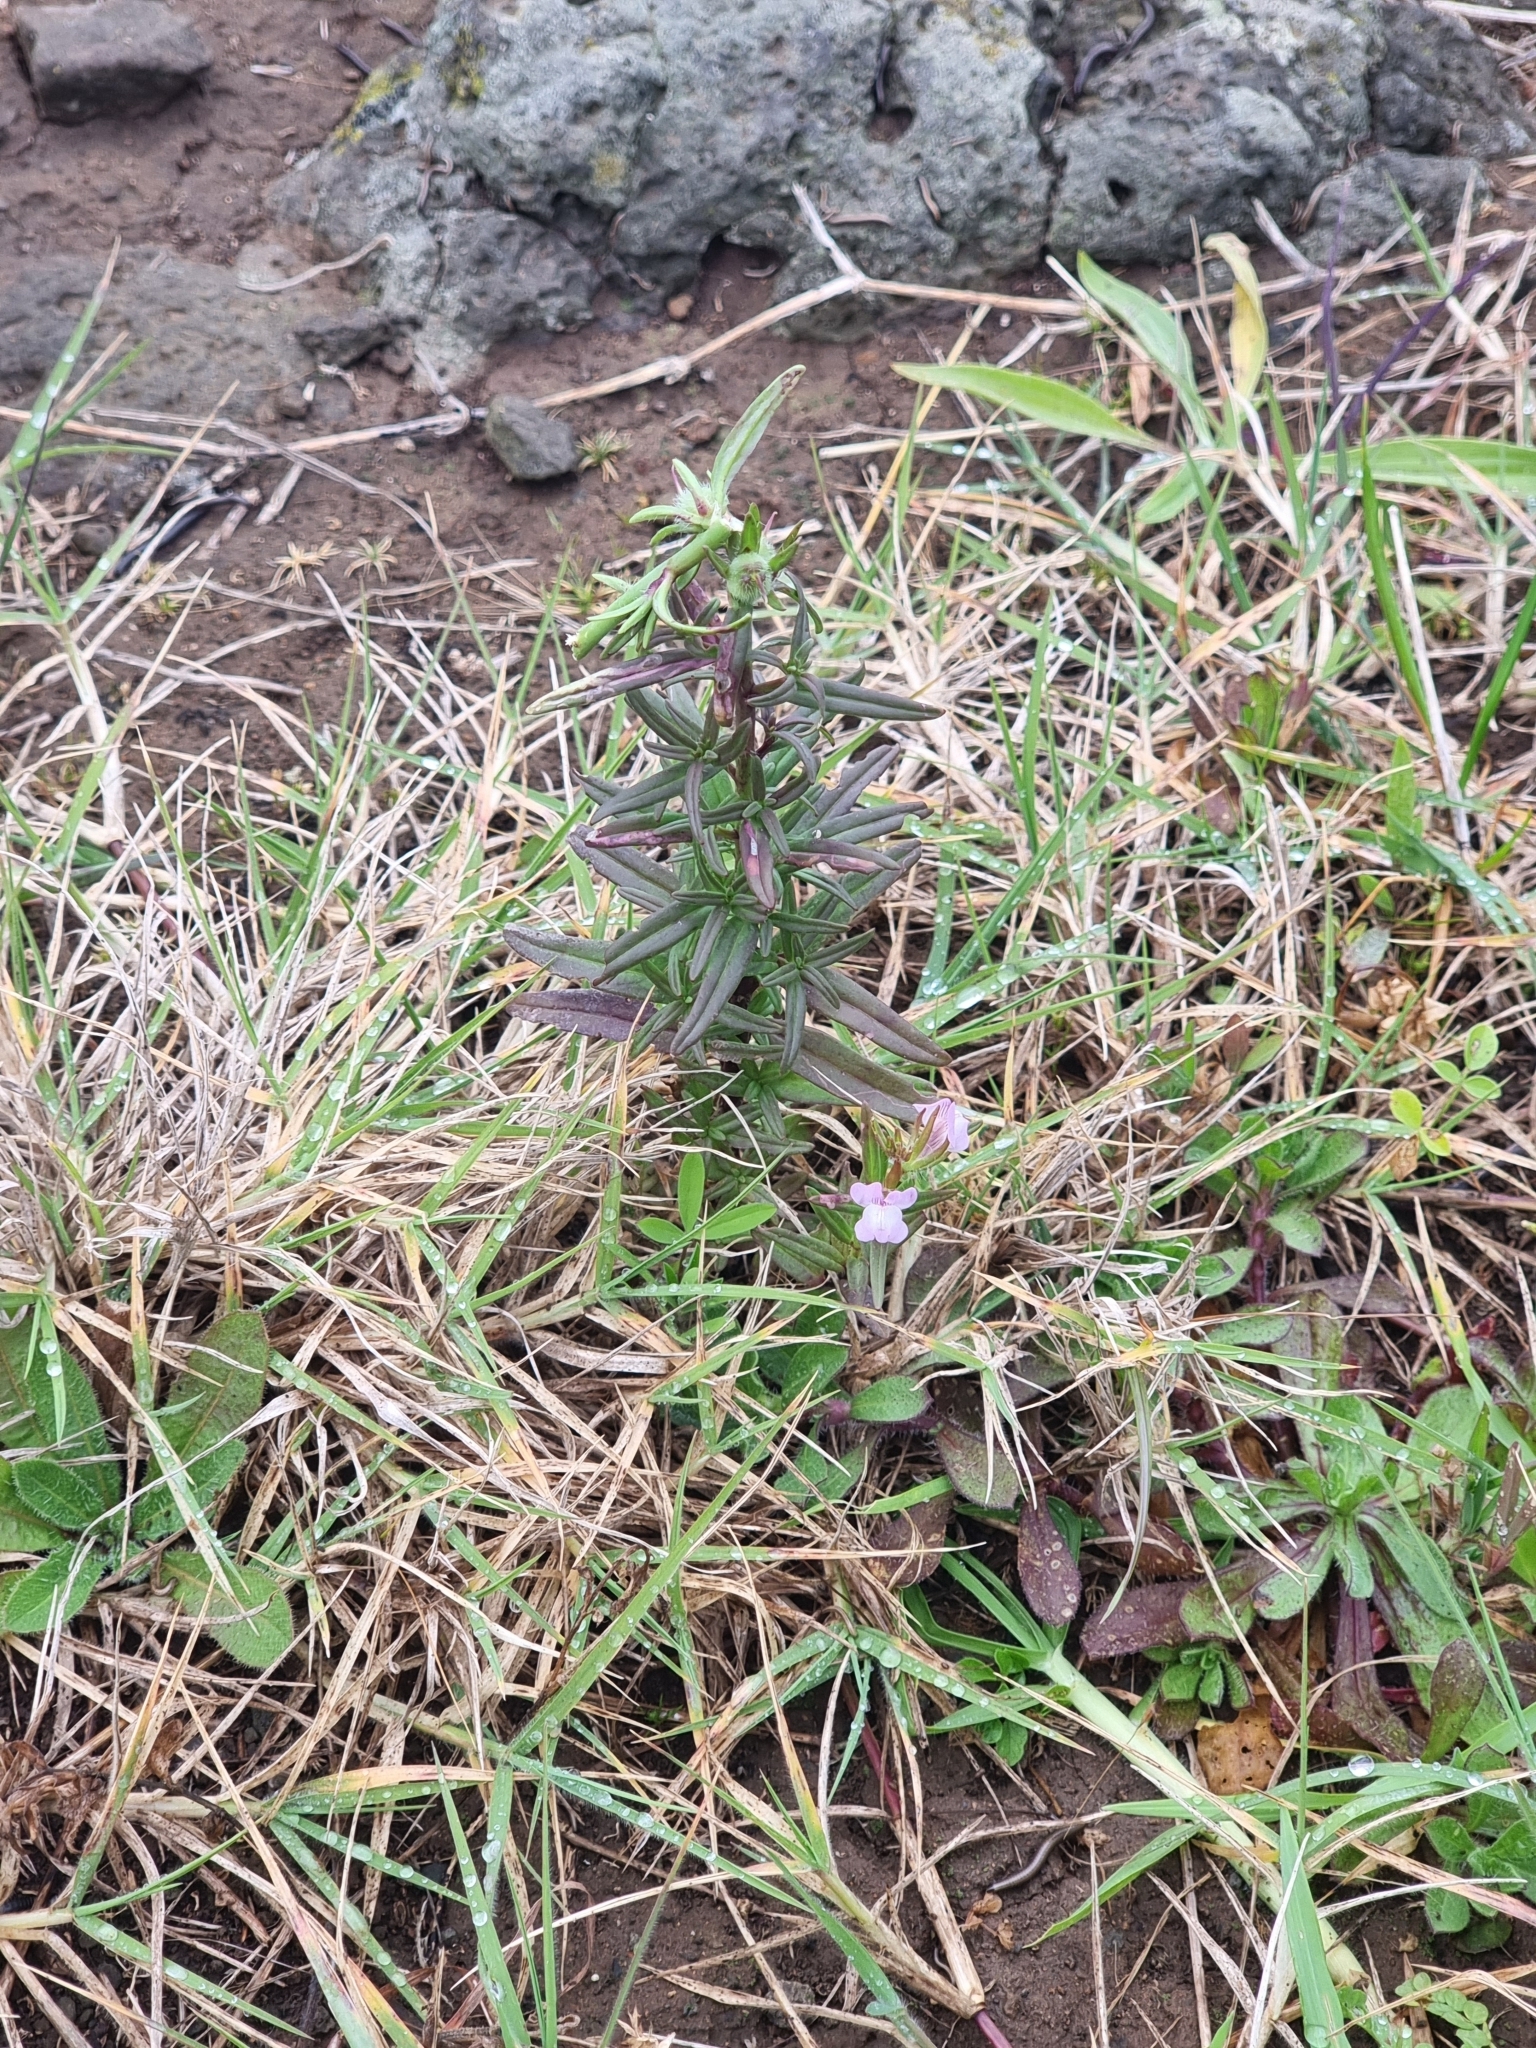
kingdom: Plantae
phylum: Tracheophyta
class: Magnoliopsida
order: Lamiales
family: Plantaginaceae
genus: Misopates
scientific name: Misopates orontium
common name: Weasel's-snout
